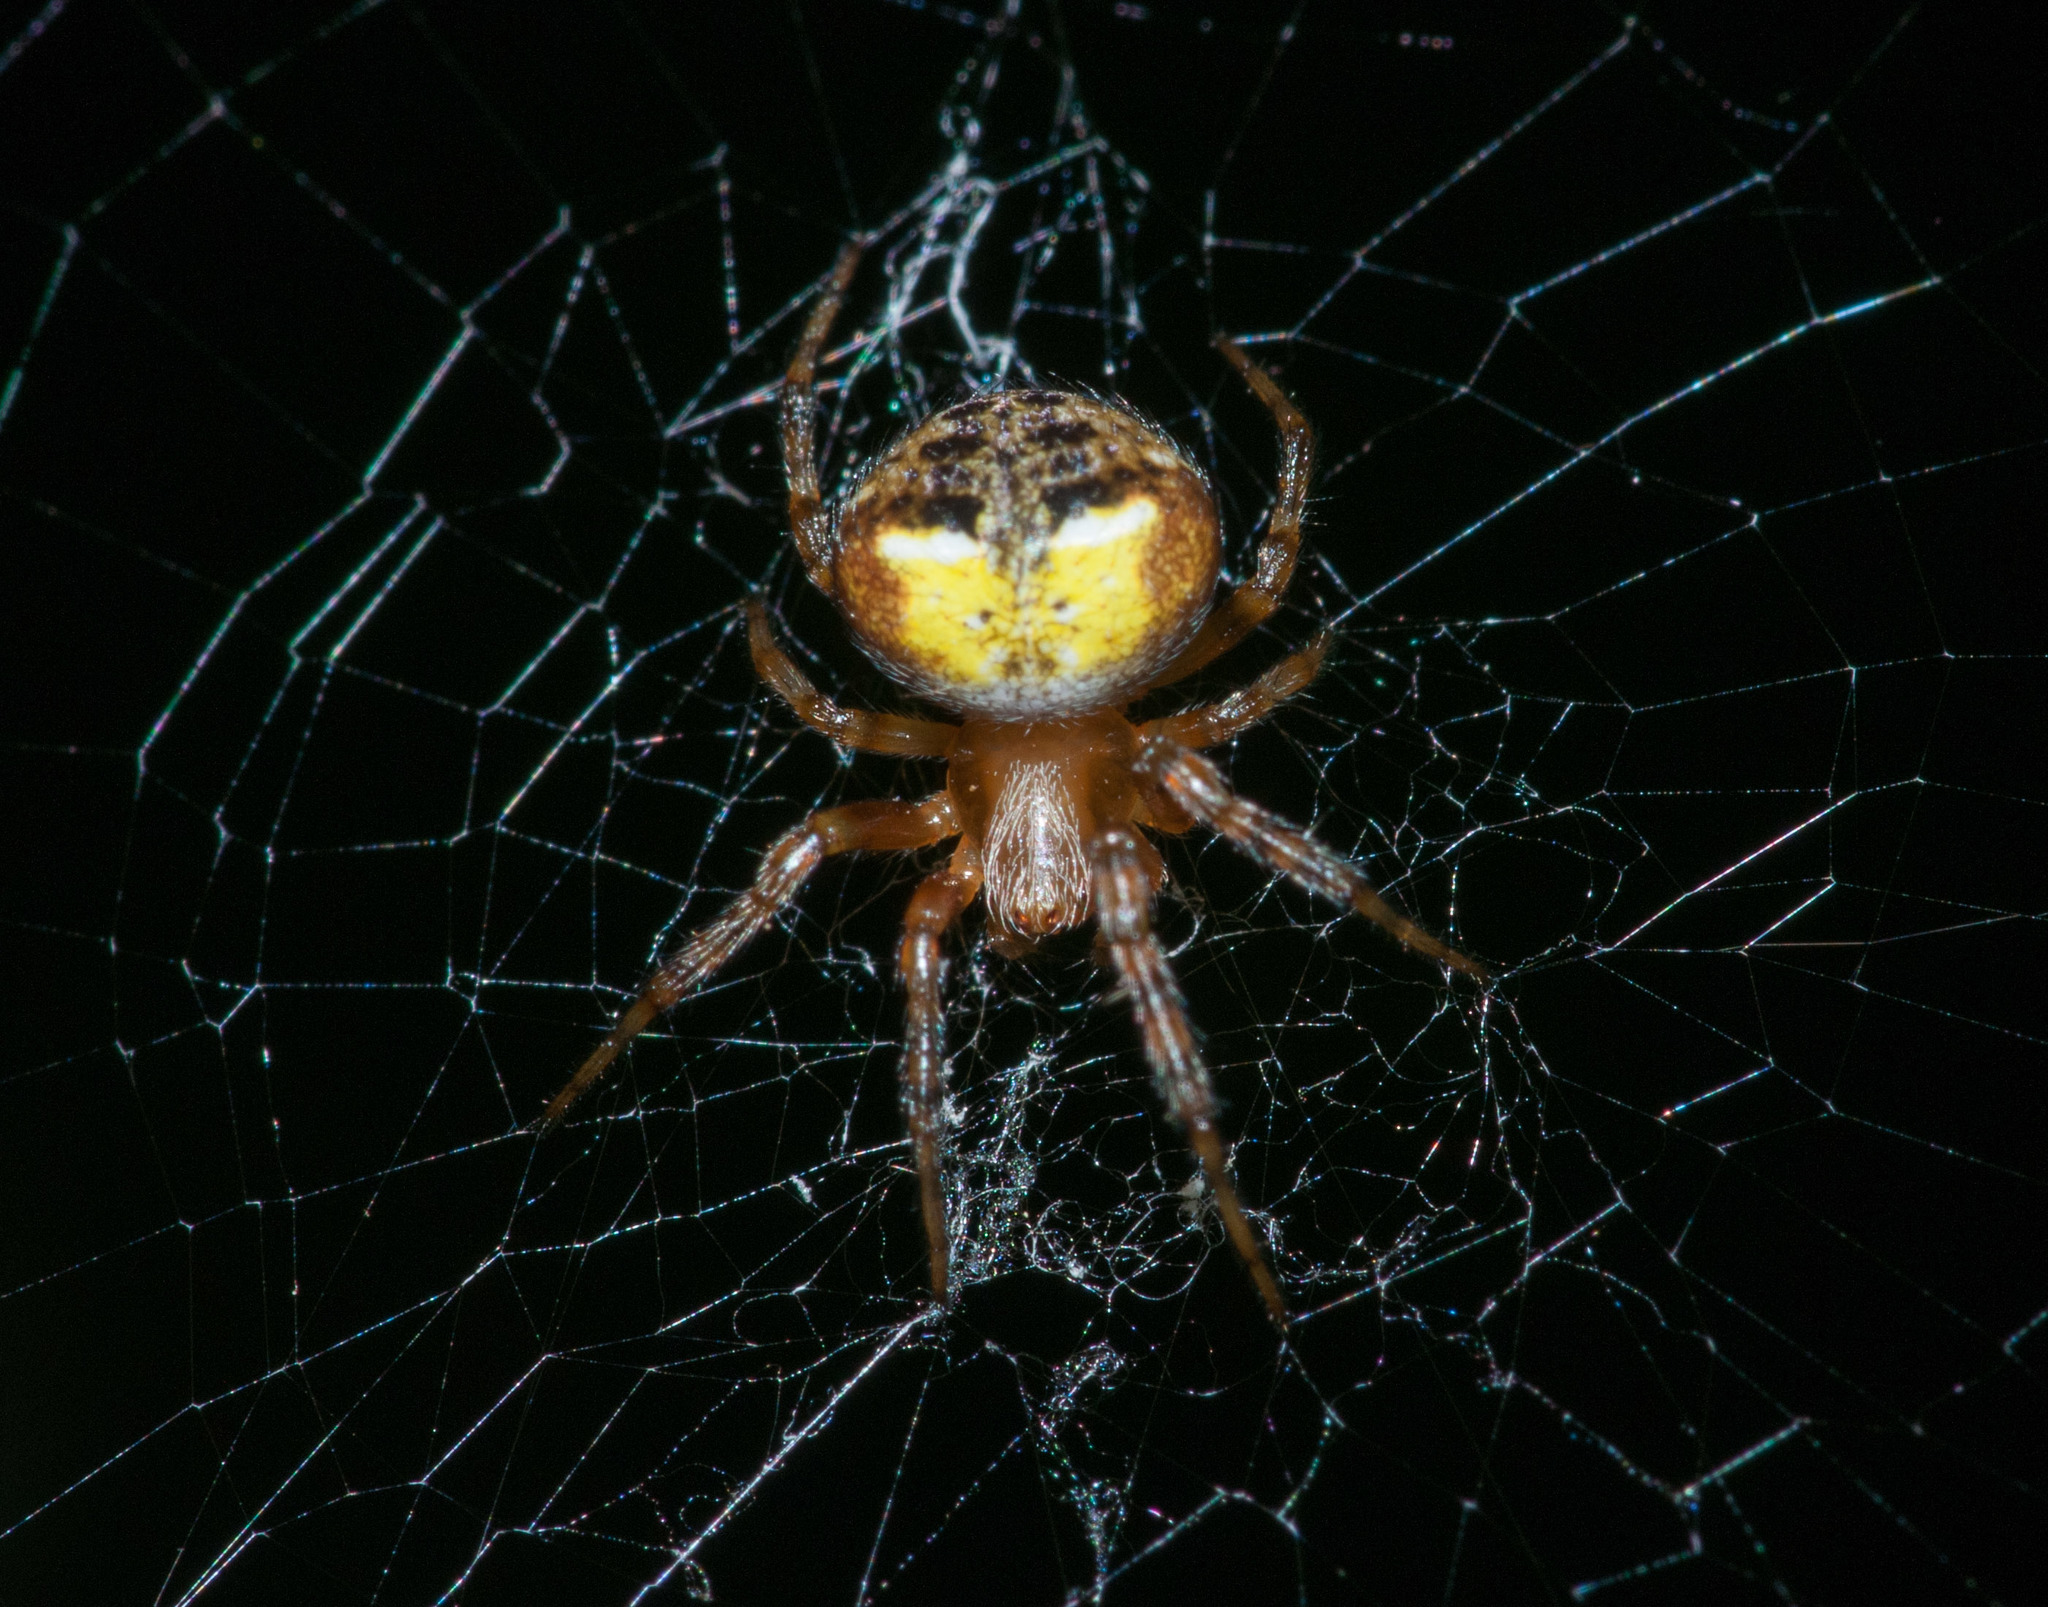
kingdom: Animalia
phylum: Arthropoda
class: Arachnida
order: Araneae
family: Araneidae
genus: Araneus
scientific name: Araneus albotriangulus
